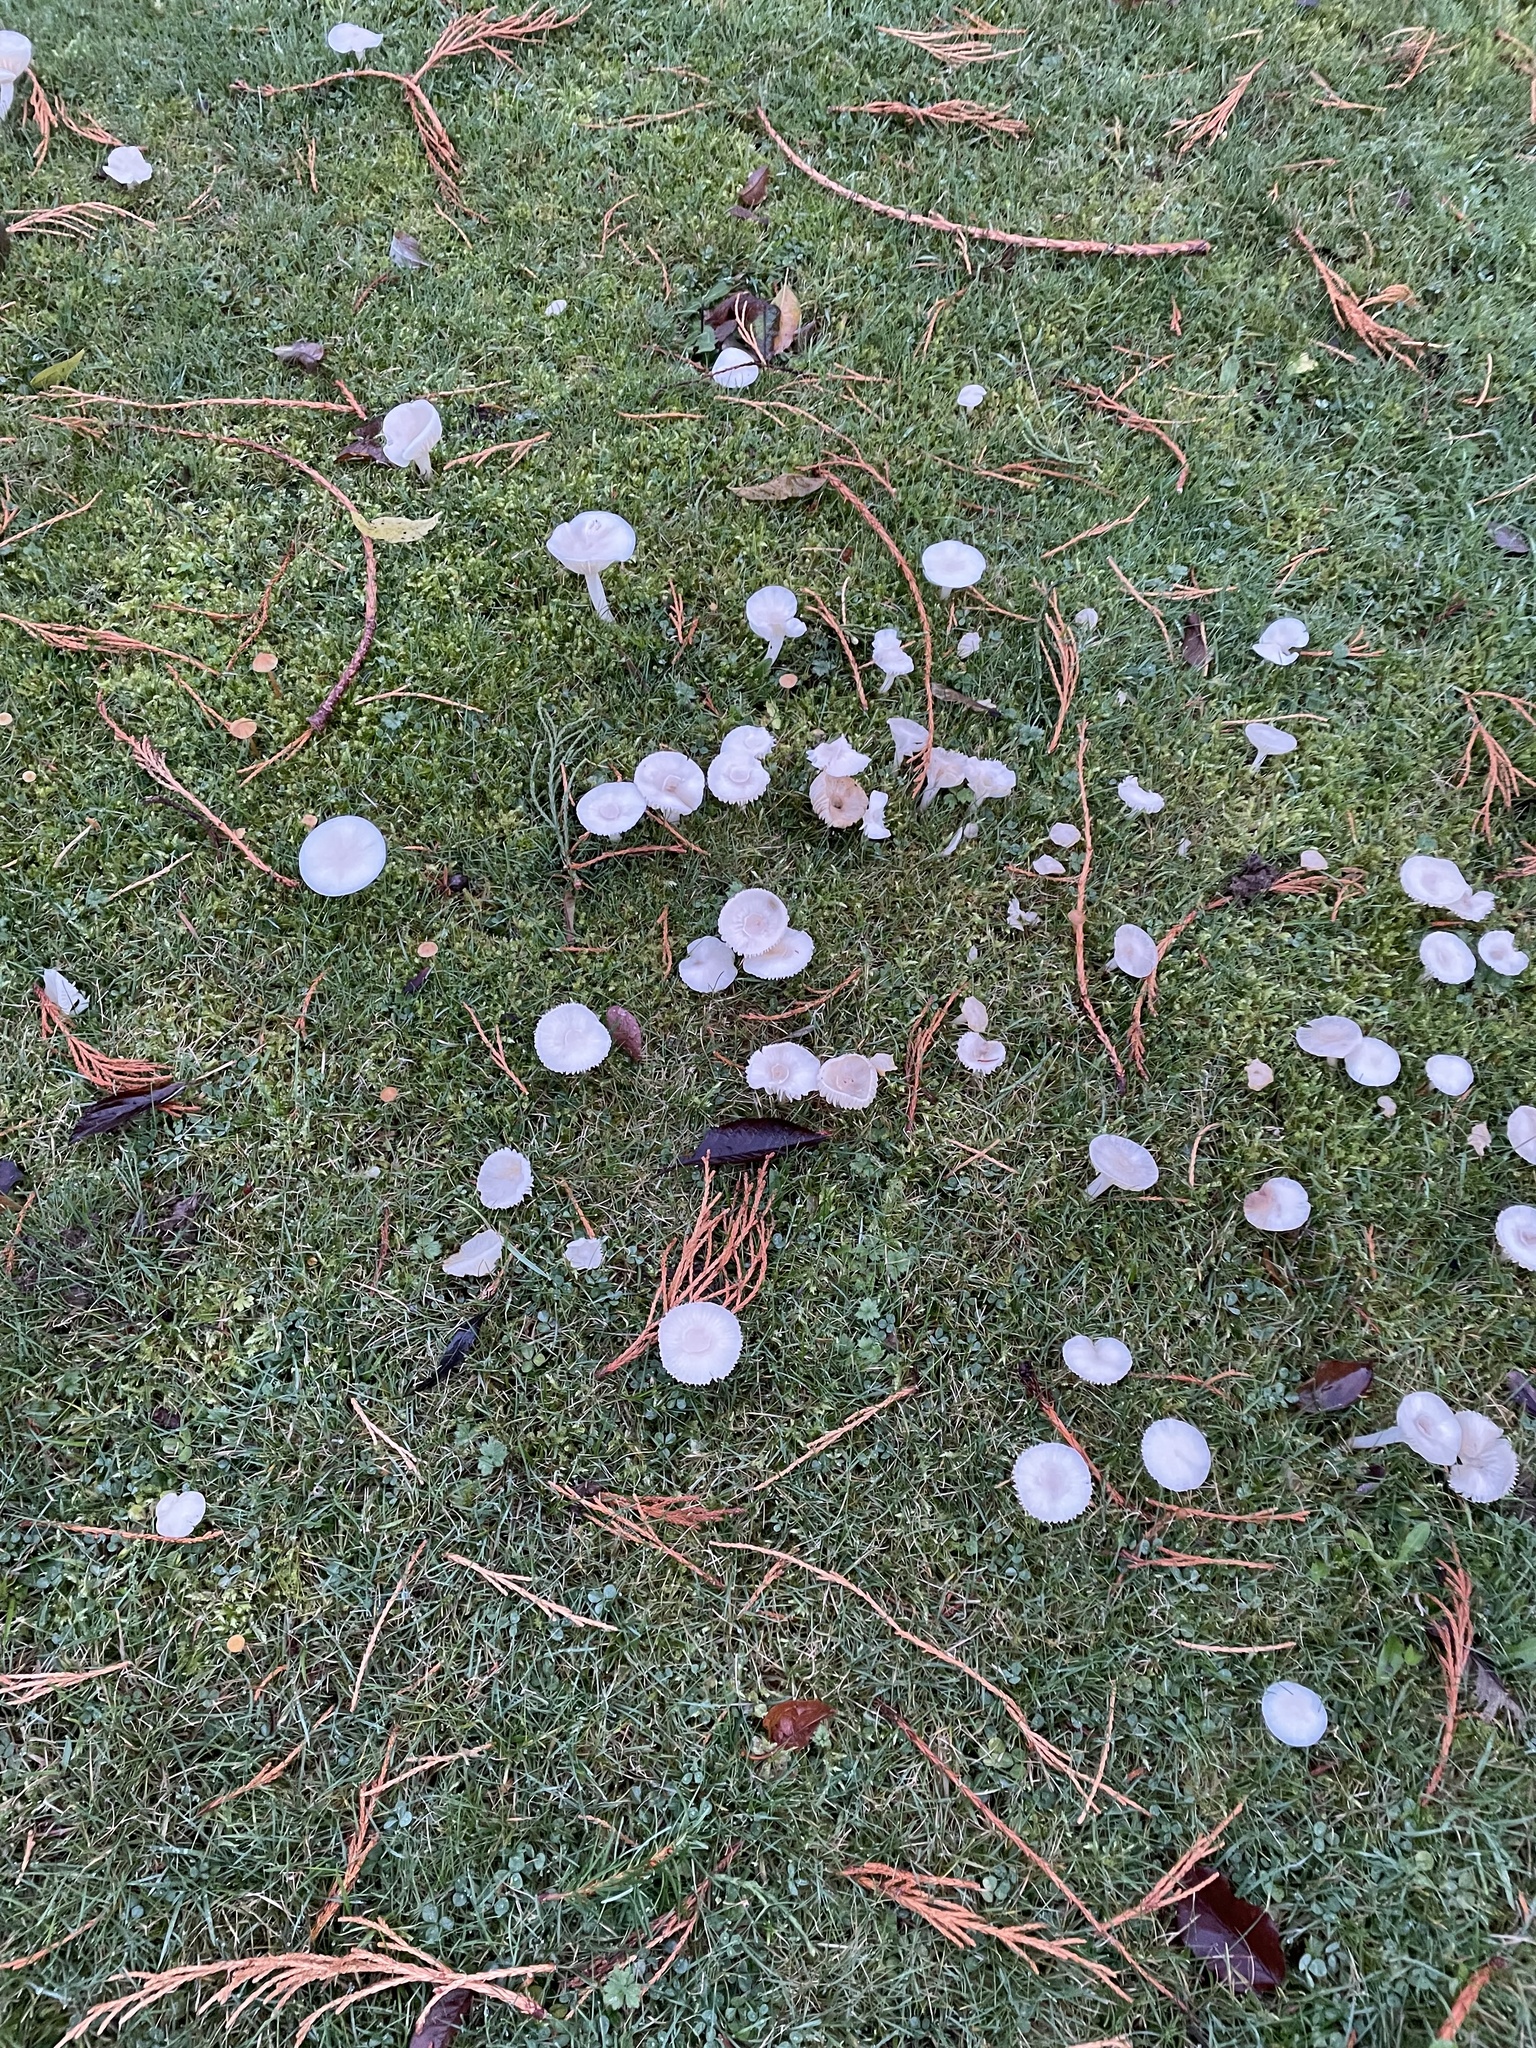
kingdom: Fungi
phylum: Basidiomycota
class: Agaricomycetes
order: Agaricales
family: Hygrophoraceae
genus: Cuphophyllus
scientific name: Cuphophyllus virgineus
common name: Snowy waxcap
